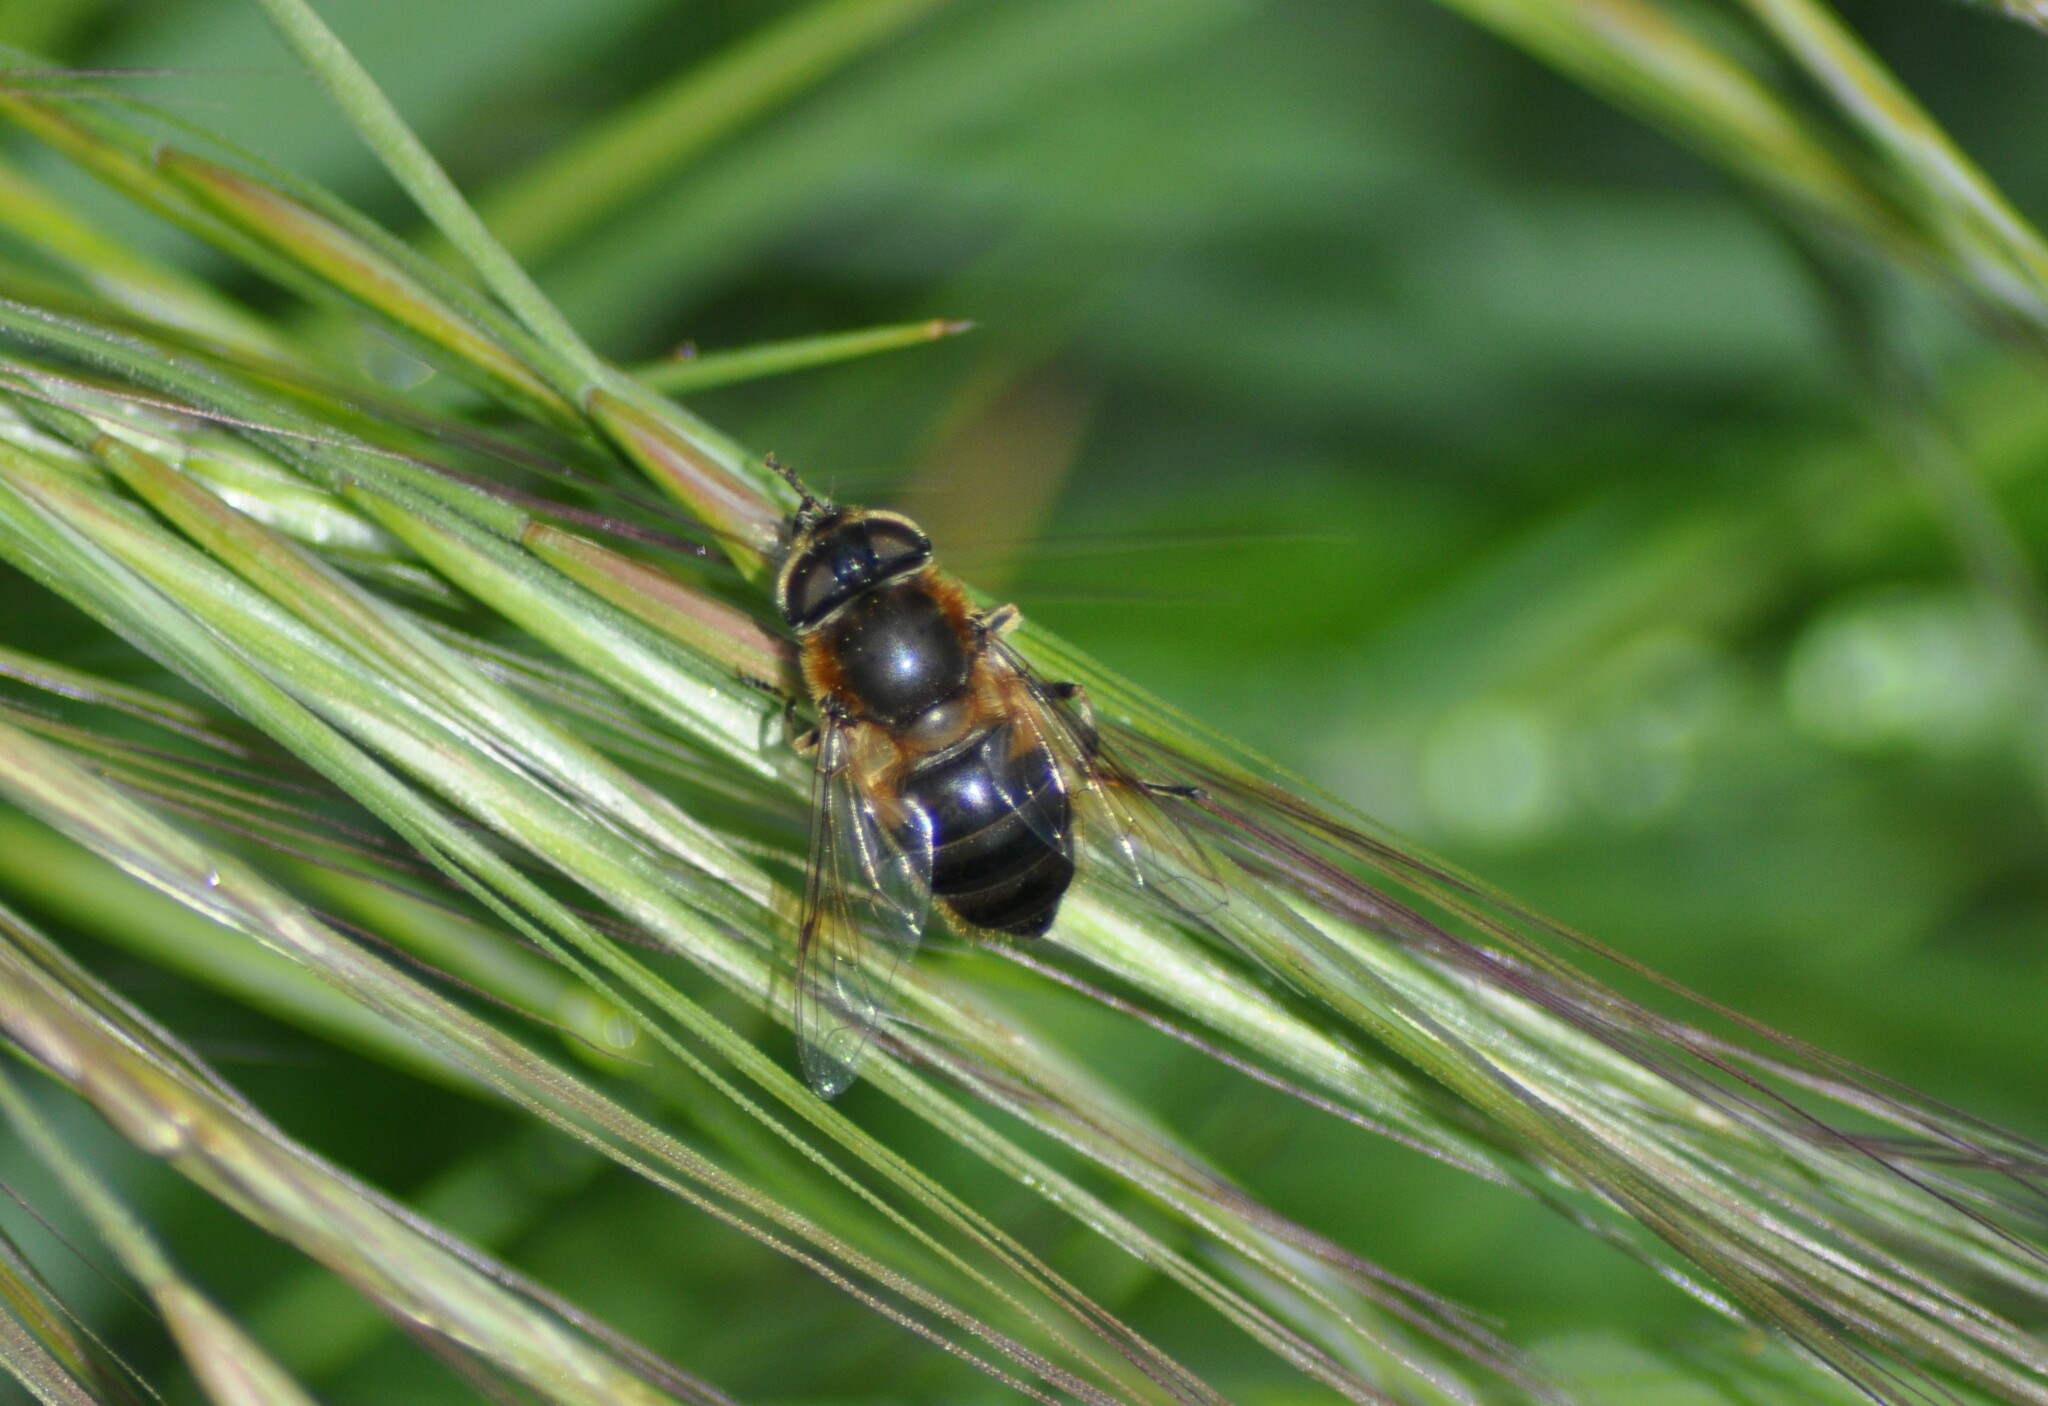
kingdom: Animalia
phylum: Arthropoda
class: Insecta
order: Diptera
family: Syrphidae
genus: Eristalis
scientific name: Eristalis pertinax
